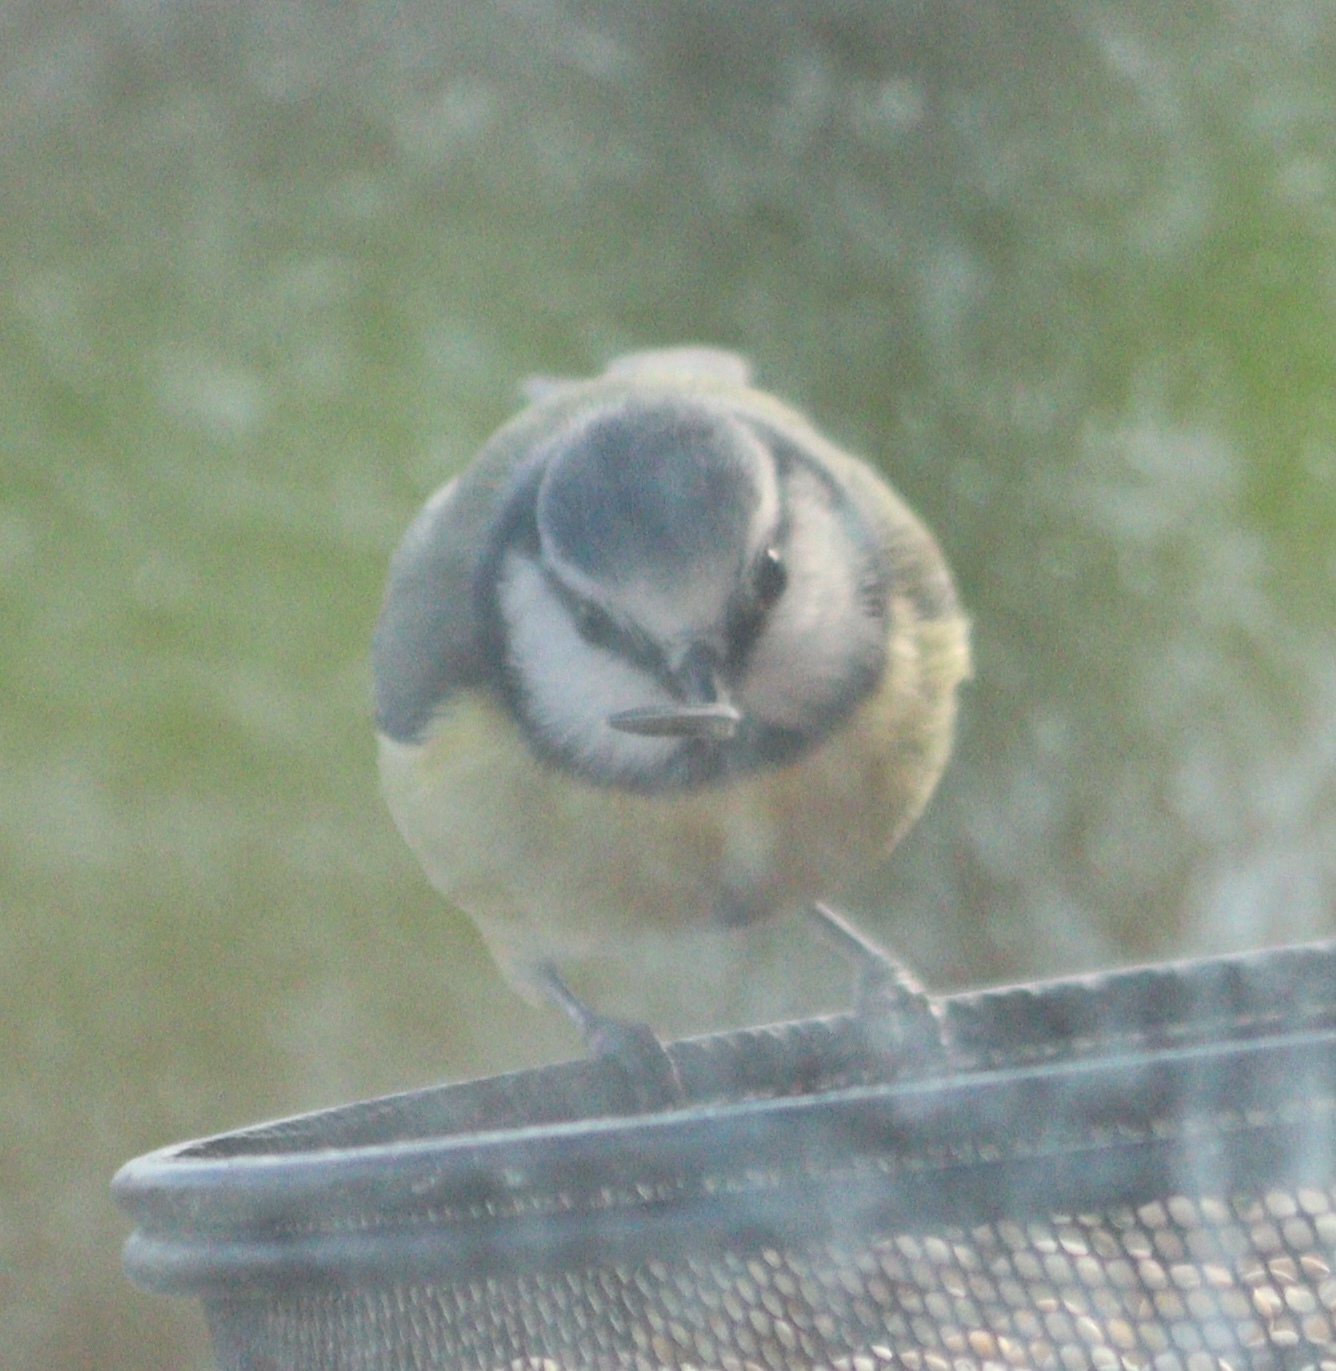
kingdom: Animalia
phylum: Chordata
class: Aves
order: Passeriformes
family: Paridae
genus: Cyanistes
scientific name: Cyanistes caeruleus
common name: Eurasian blue tit
